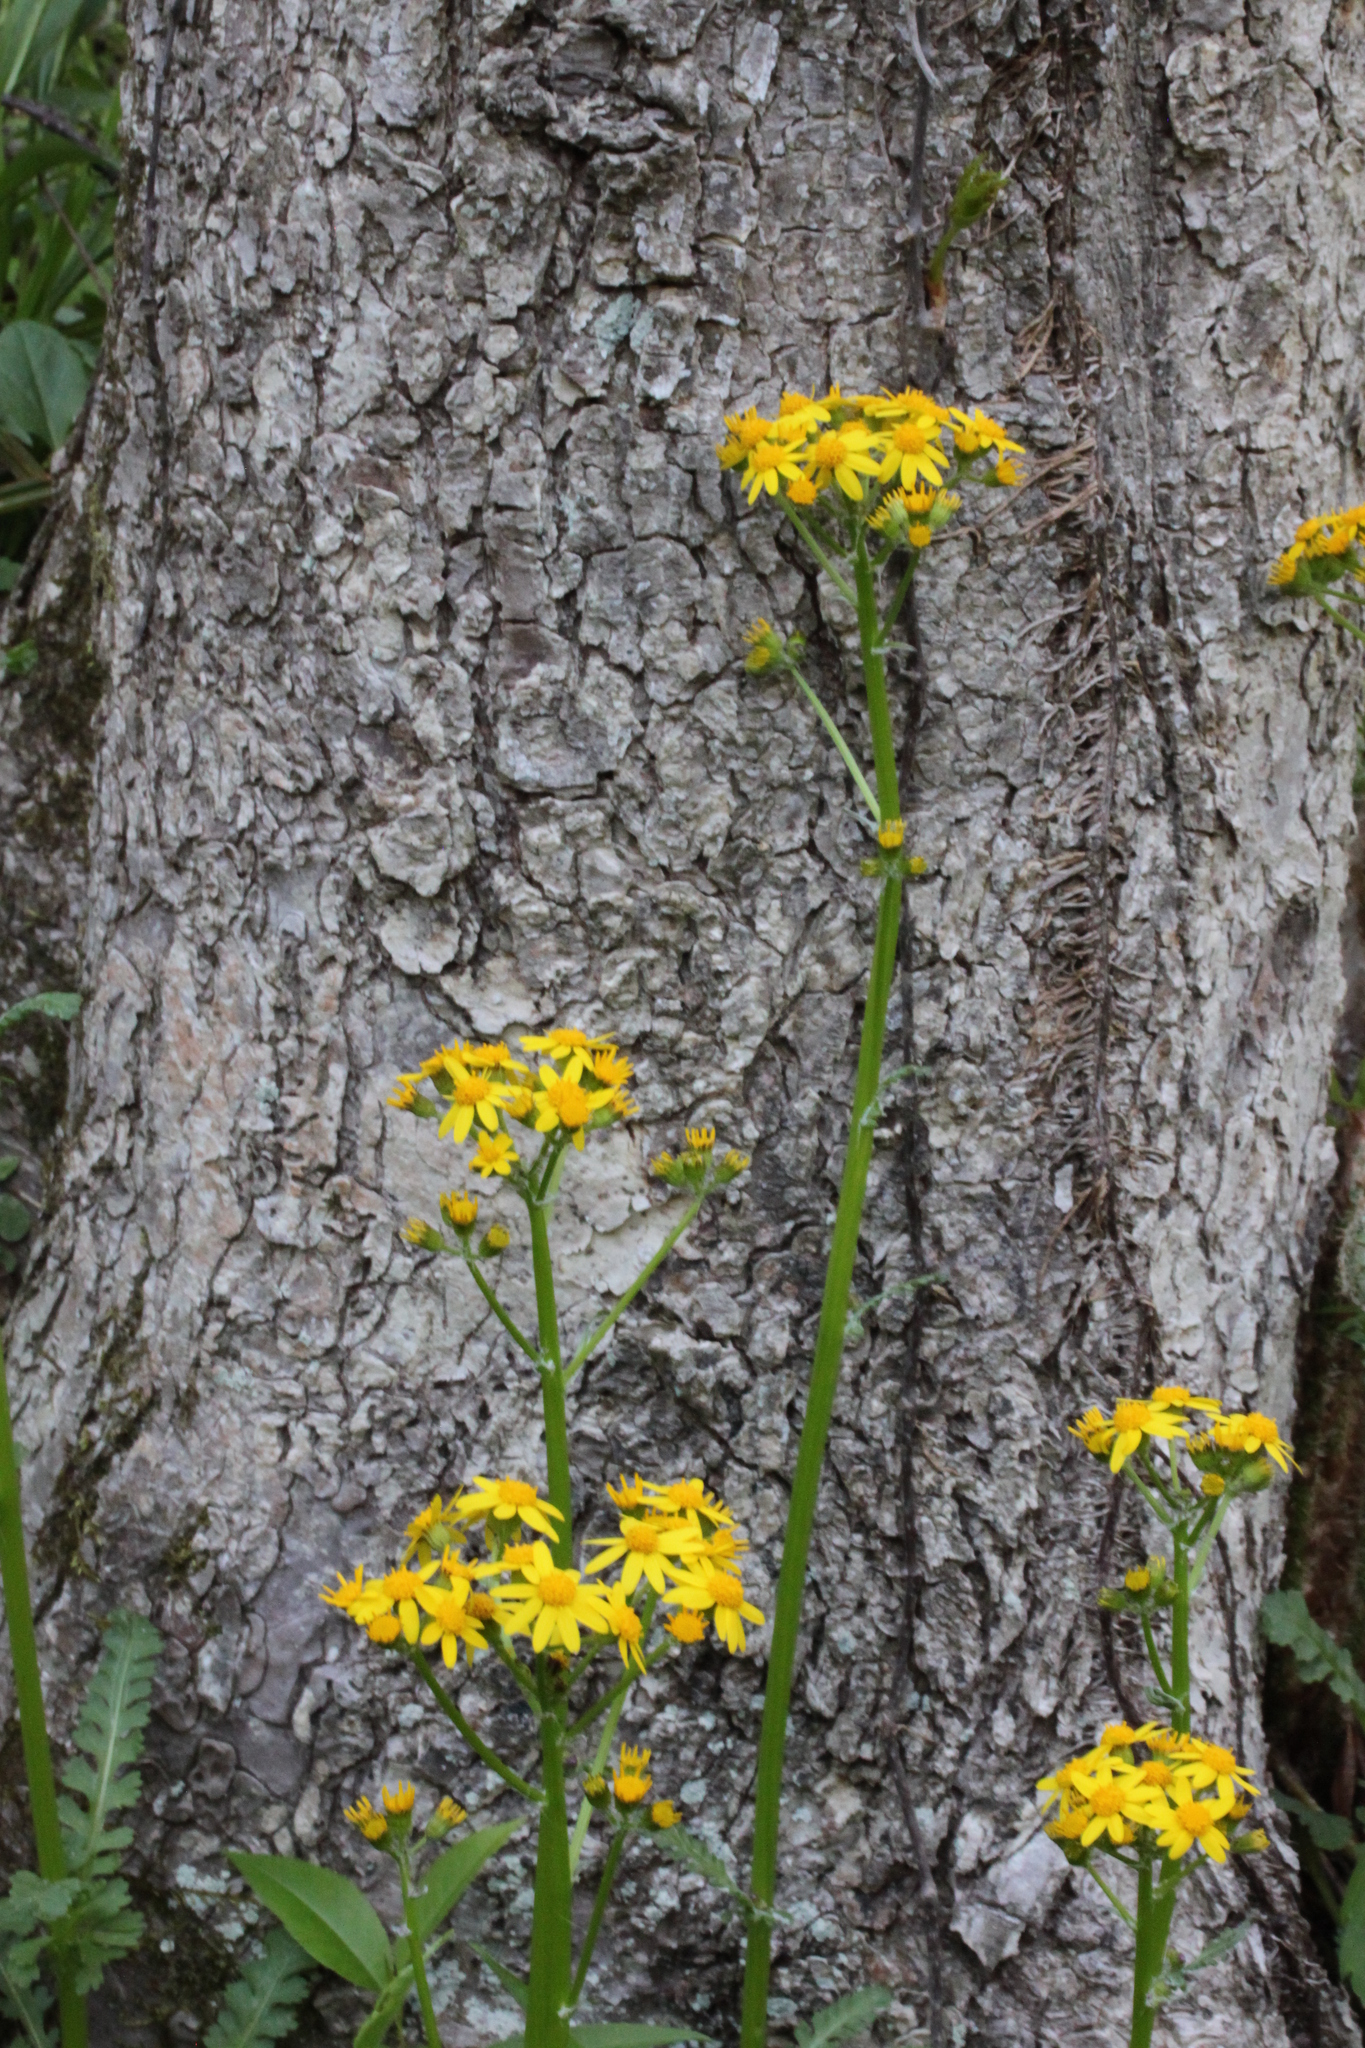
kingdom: Plantae
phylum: Tracheophyta
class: Magnoliopsida
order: Asterales
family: Asteraceae
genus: Packera
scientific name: Packera aurea
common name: Golden groundsel
